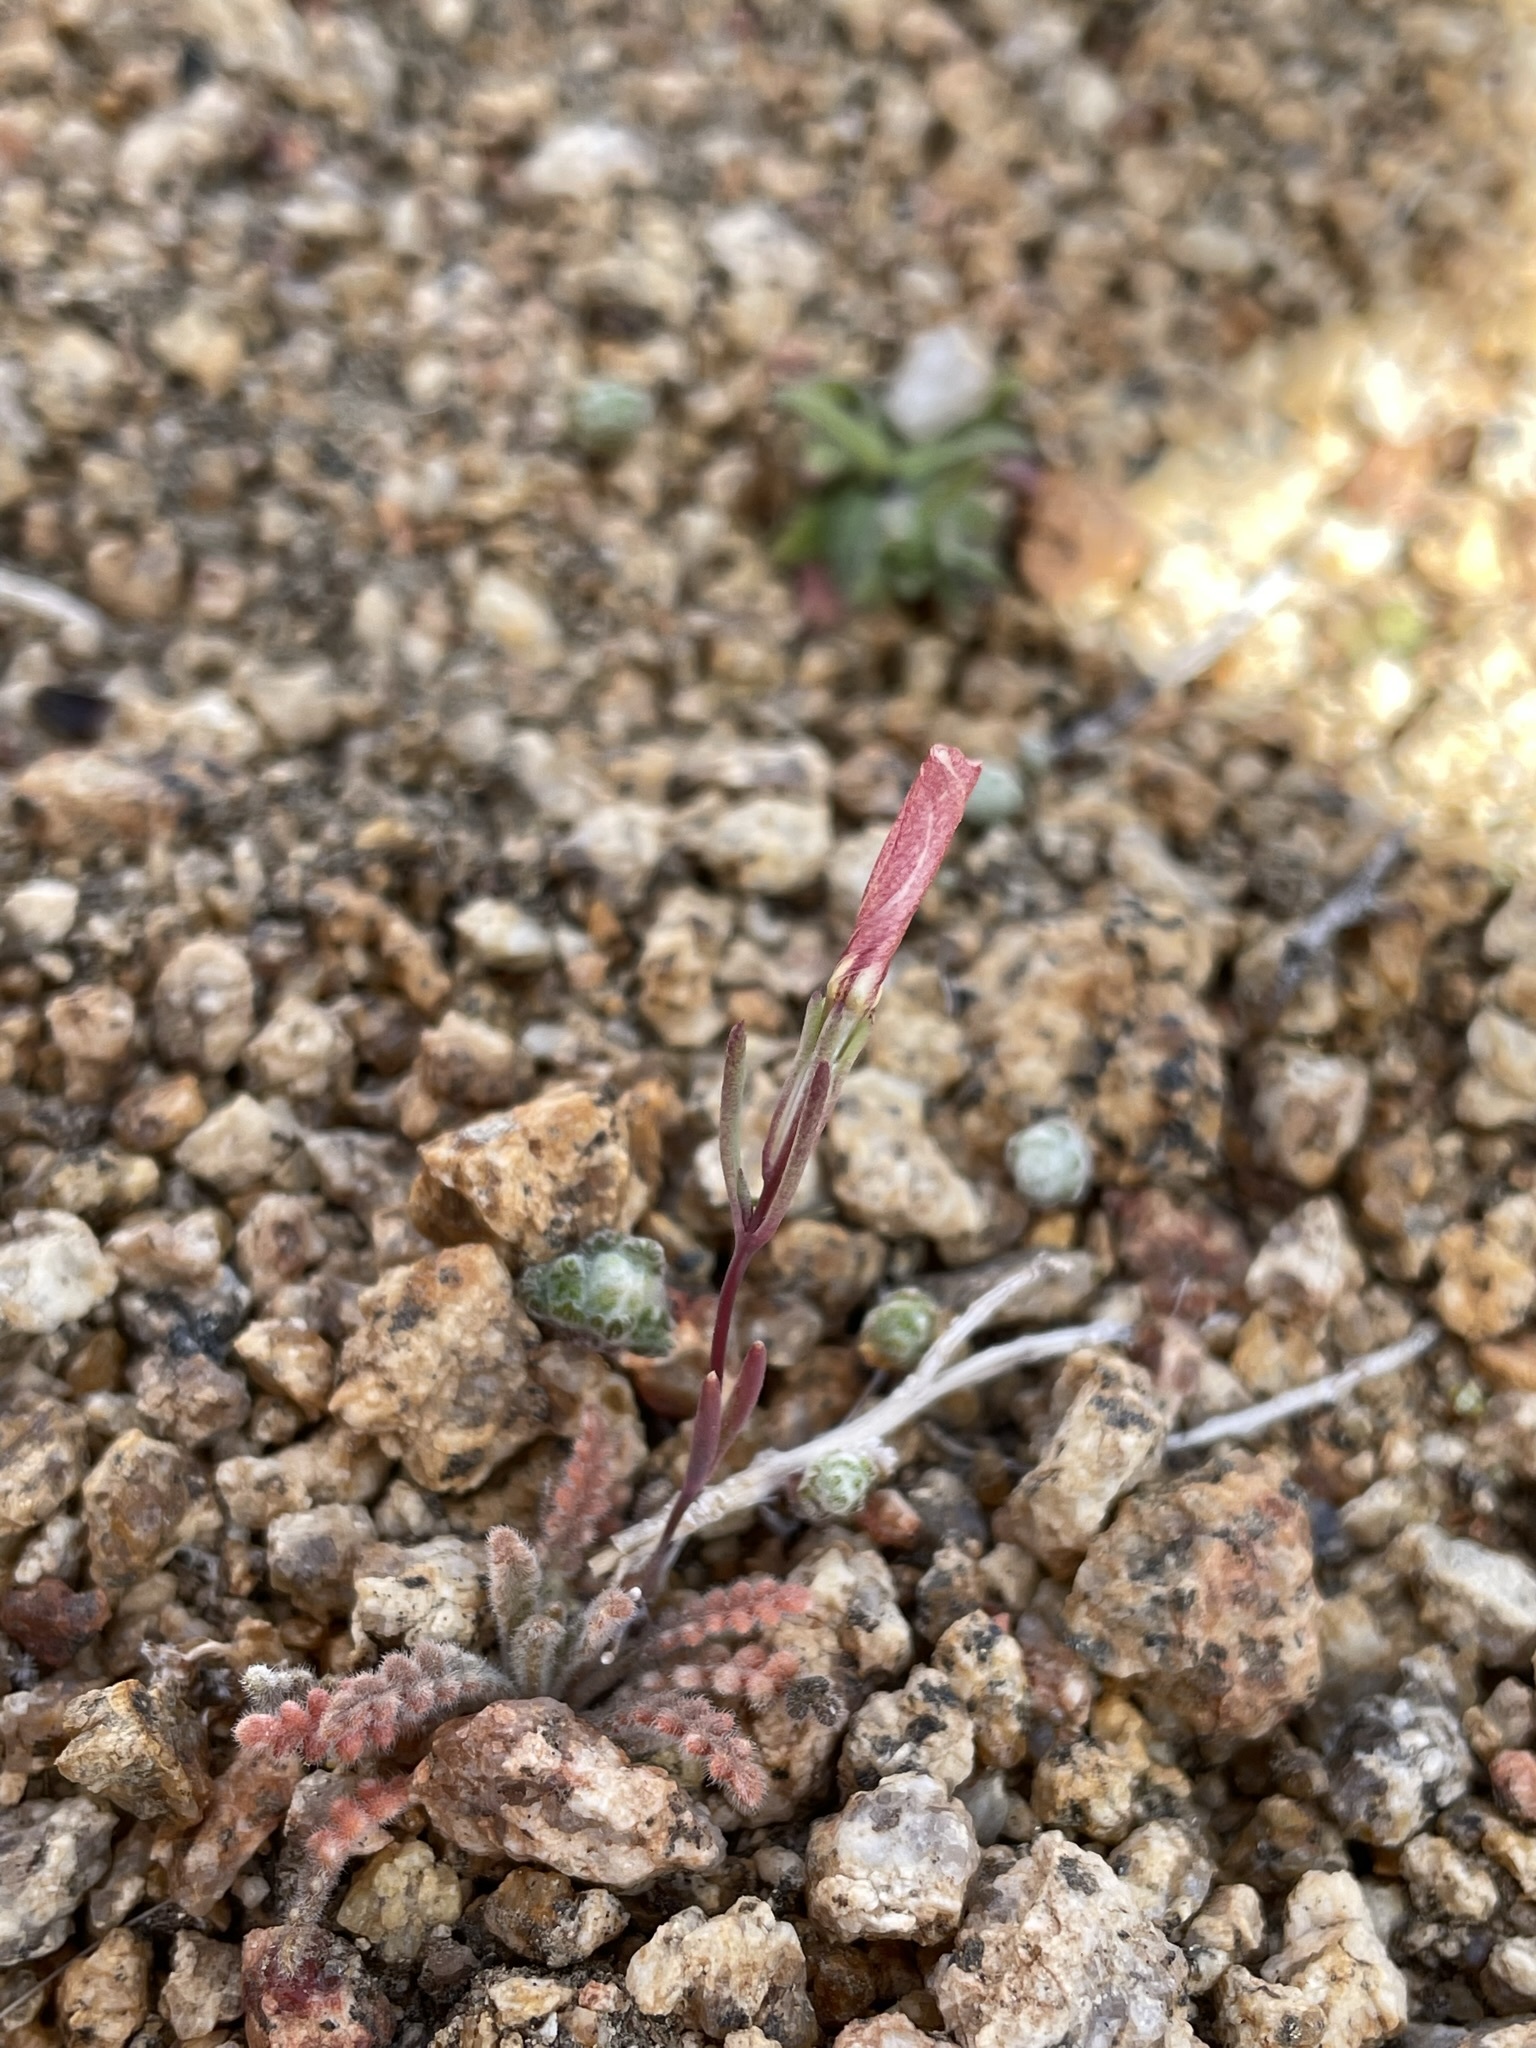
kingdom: Plantae
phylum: Tracheophyta
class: Magnoliopsida
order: Ericales
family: Polemoniaceae
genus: Linanthus
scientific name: Linanthus dichotomus
